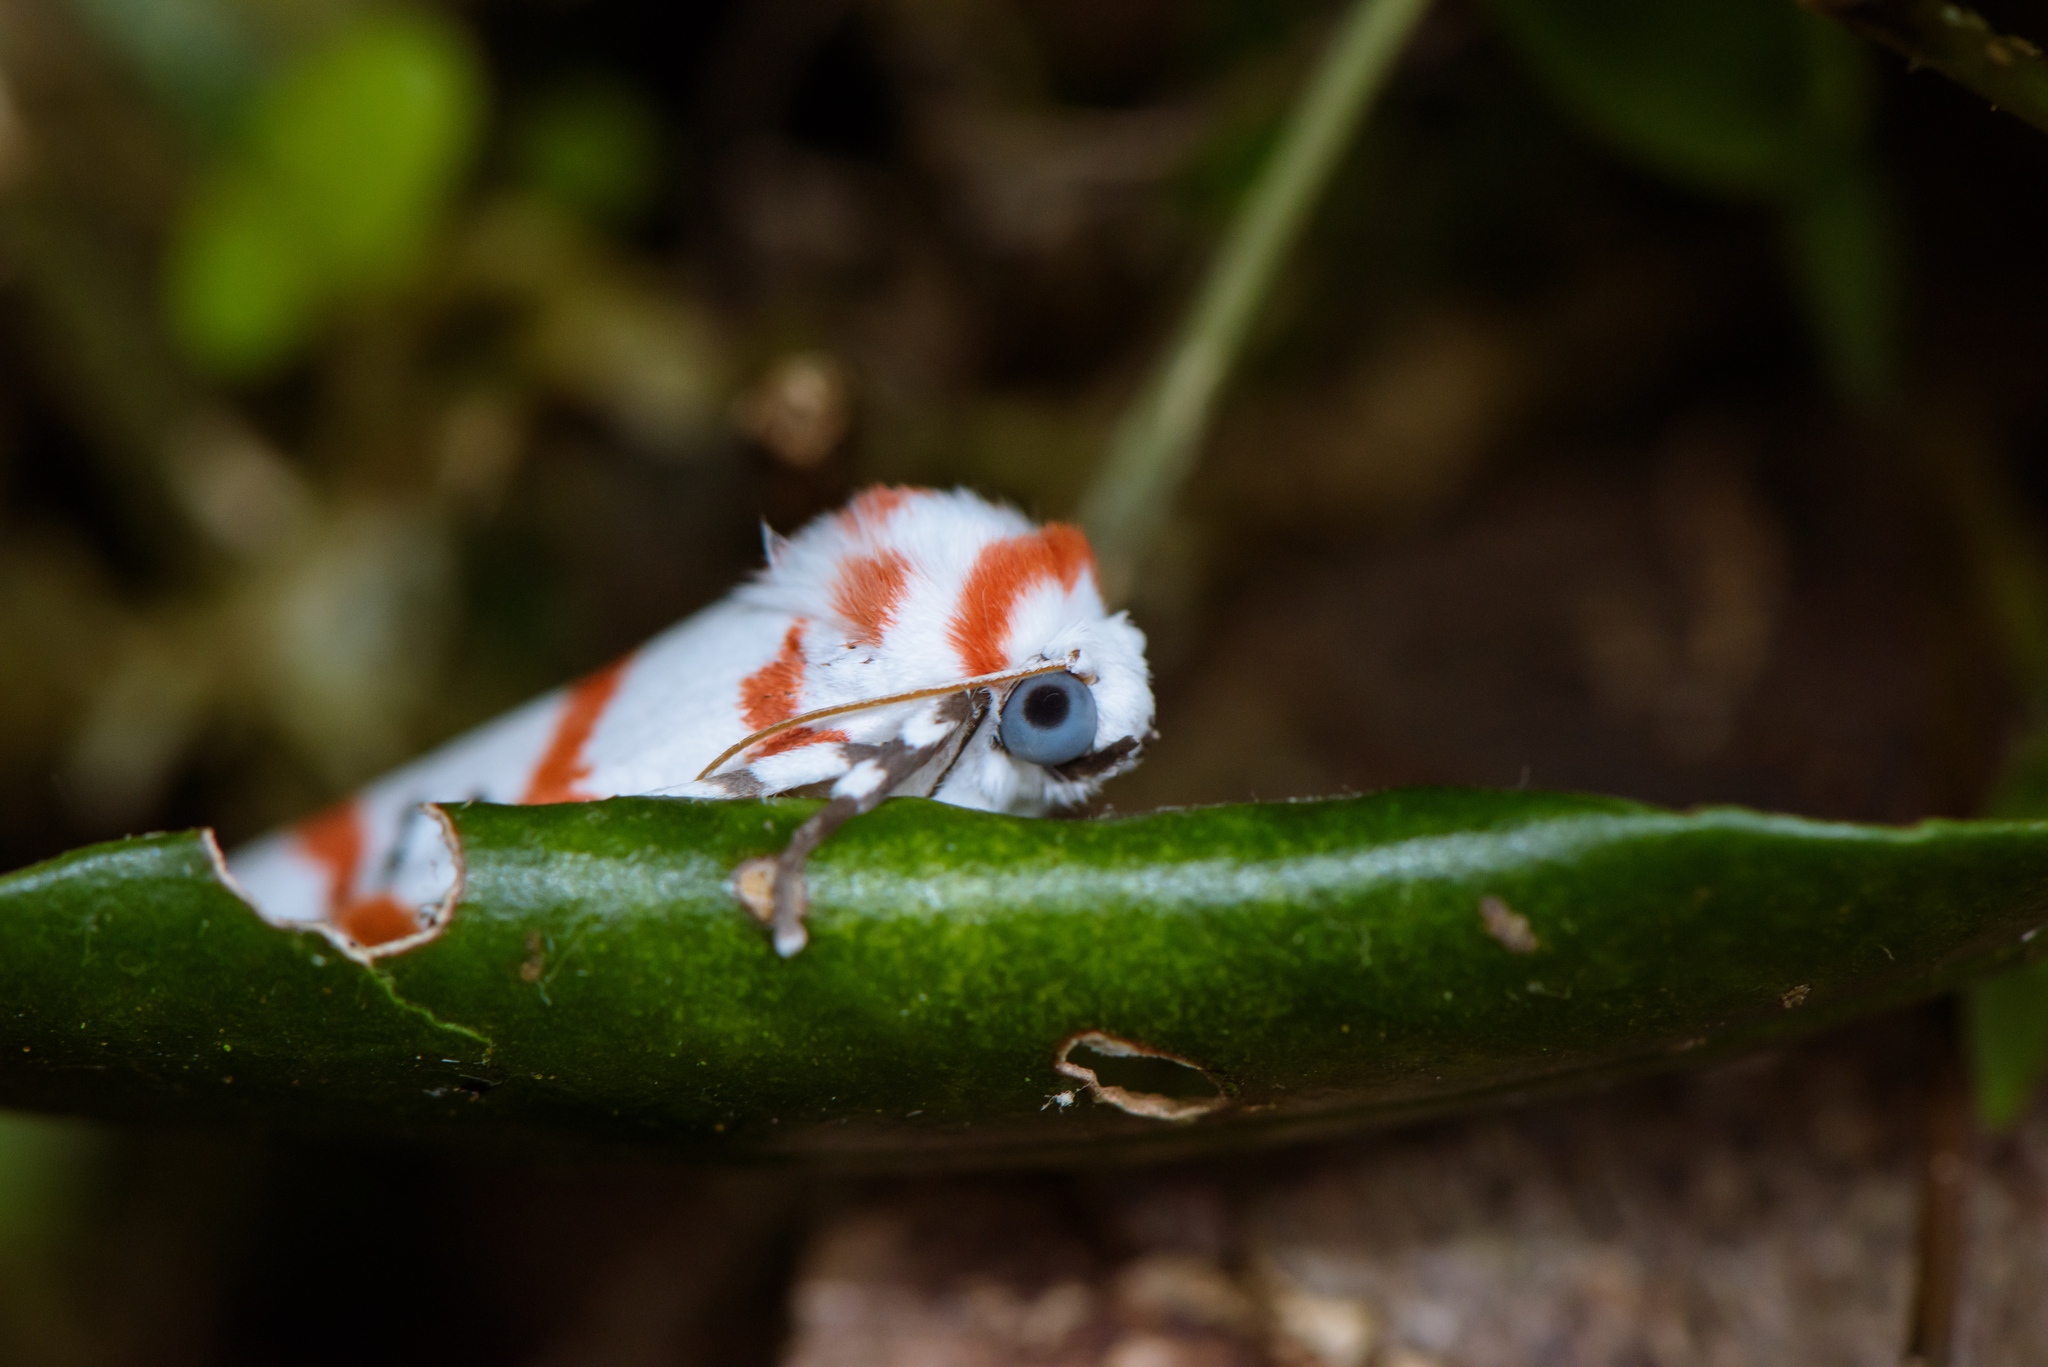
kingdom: Animalia
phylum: Arthropoda
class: Insecta
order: Lepidoptera
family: Erebidae
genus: Cyana
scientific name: Cyana subalba
